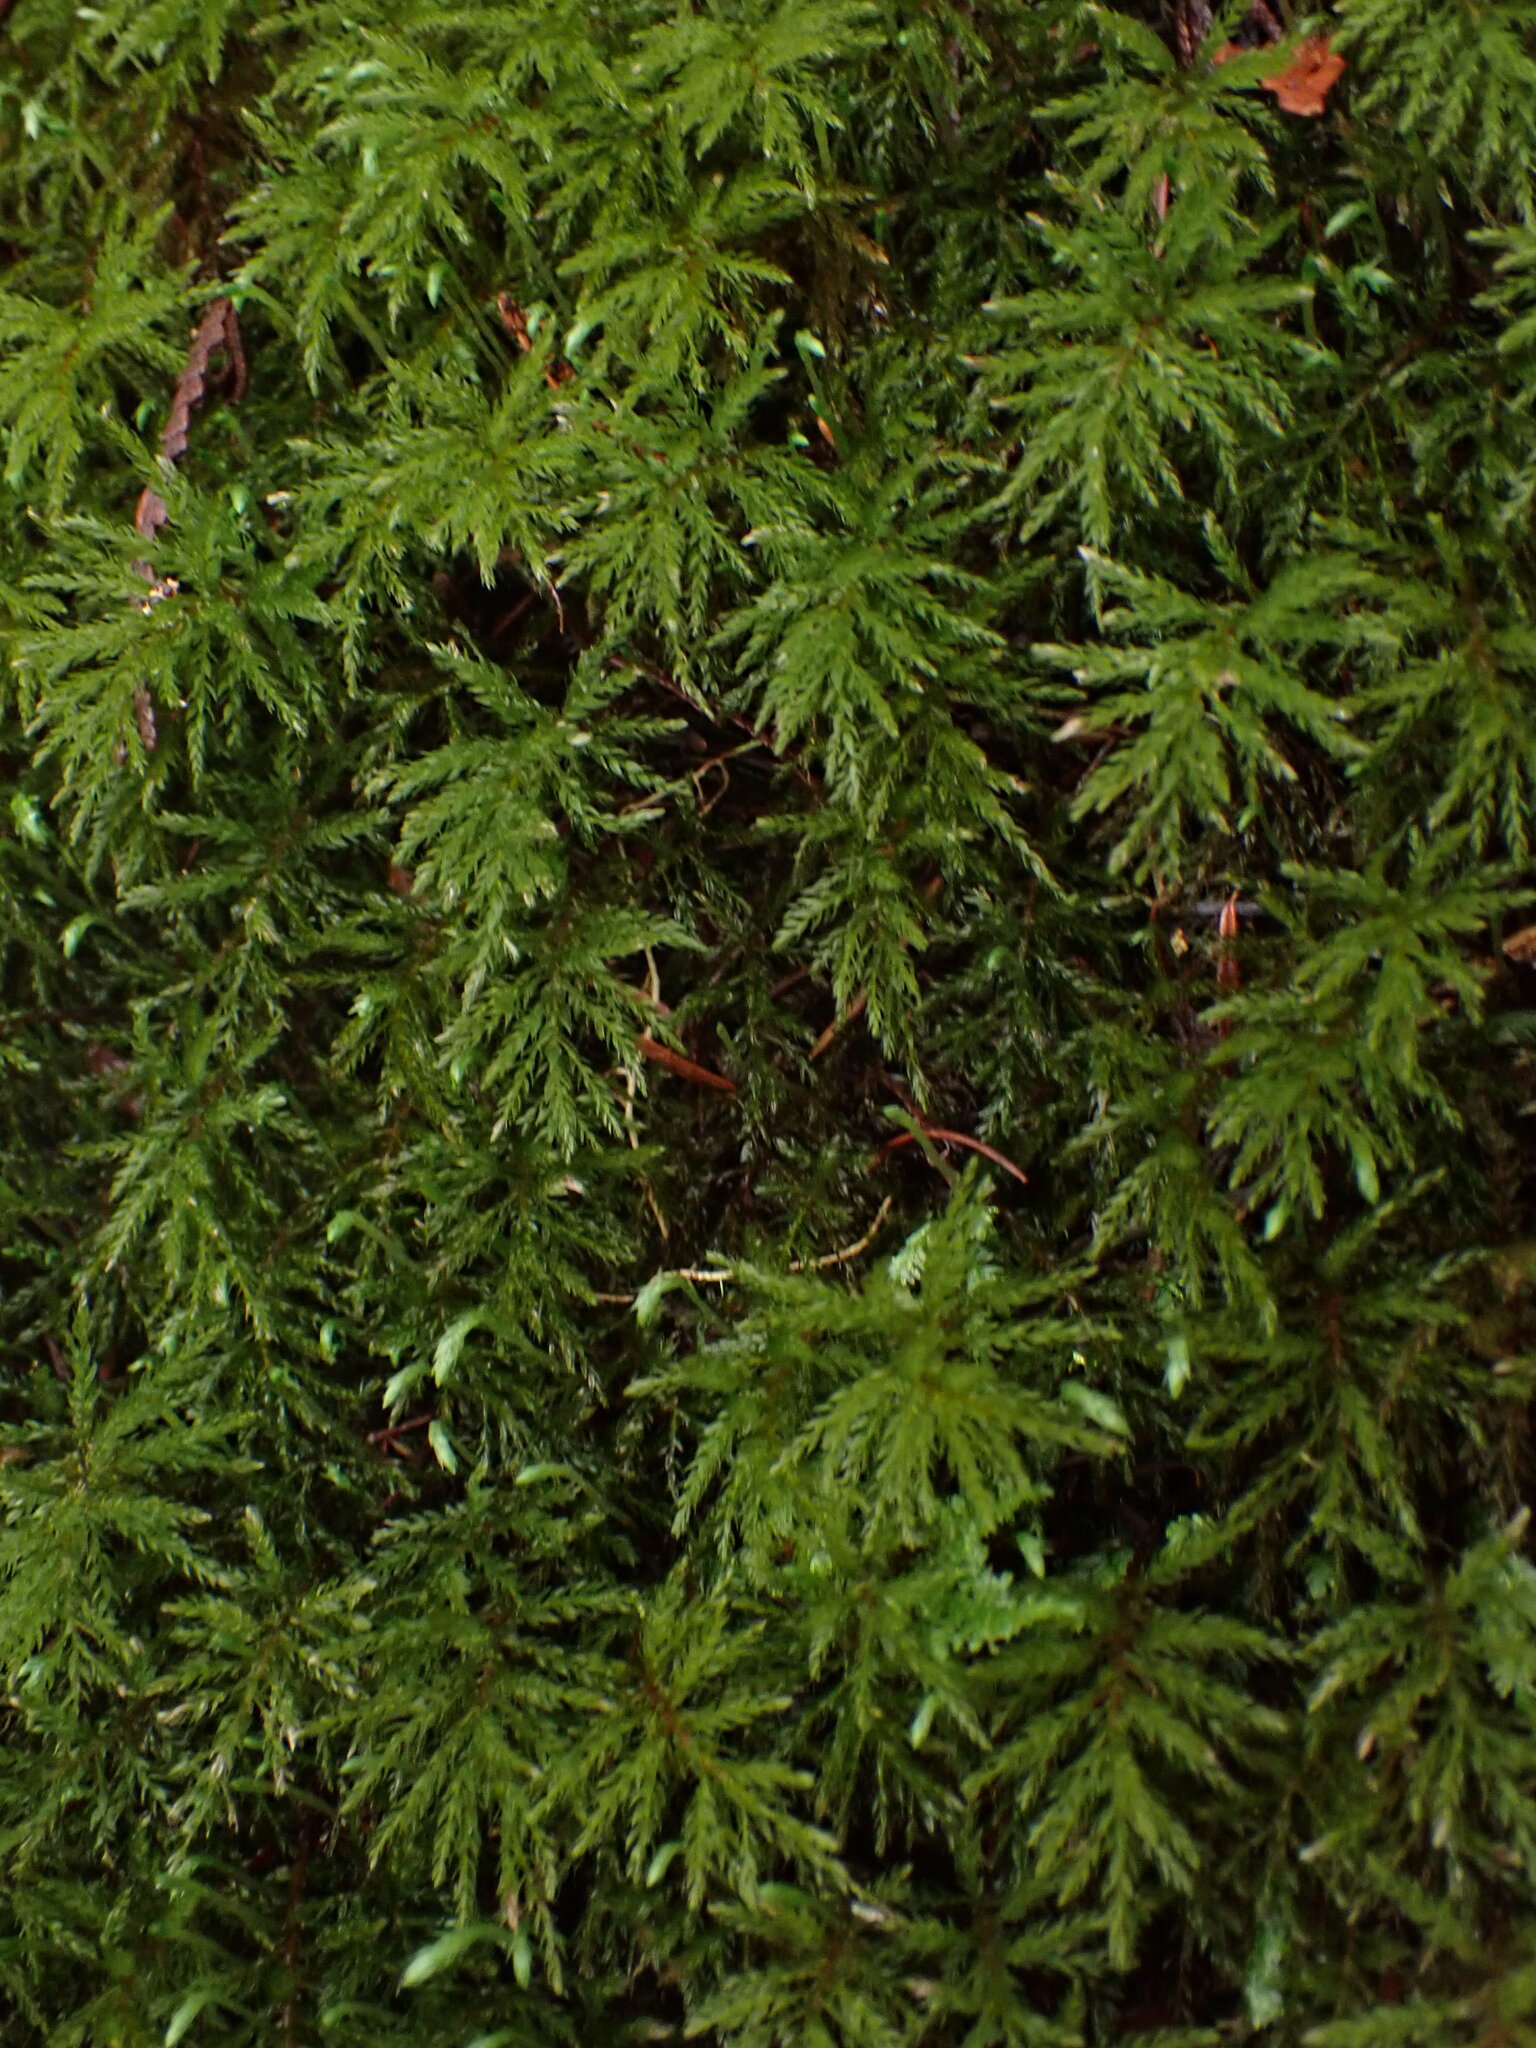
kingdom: Plantae
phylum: Bryophyta
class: Bryopsida
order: Bryales
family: Mniaceae
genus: Leucolepis
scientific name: Leucolepis acanthoneura
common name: Leucolepis umbrella moss
